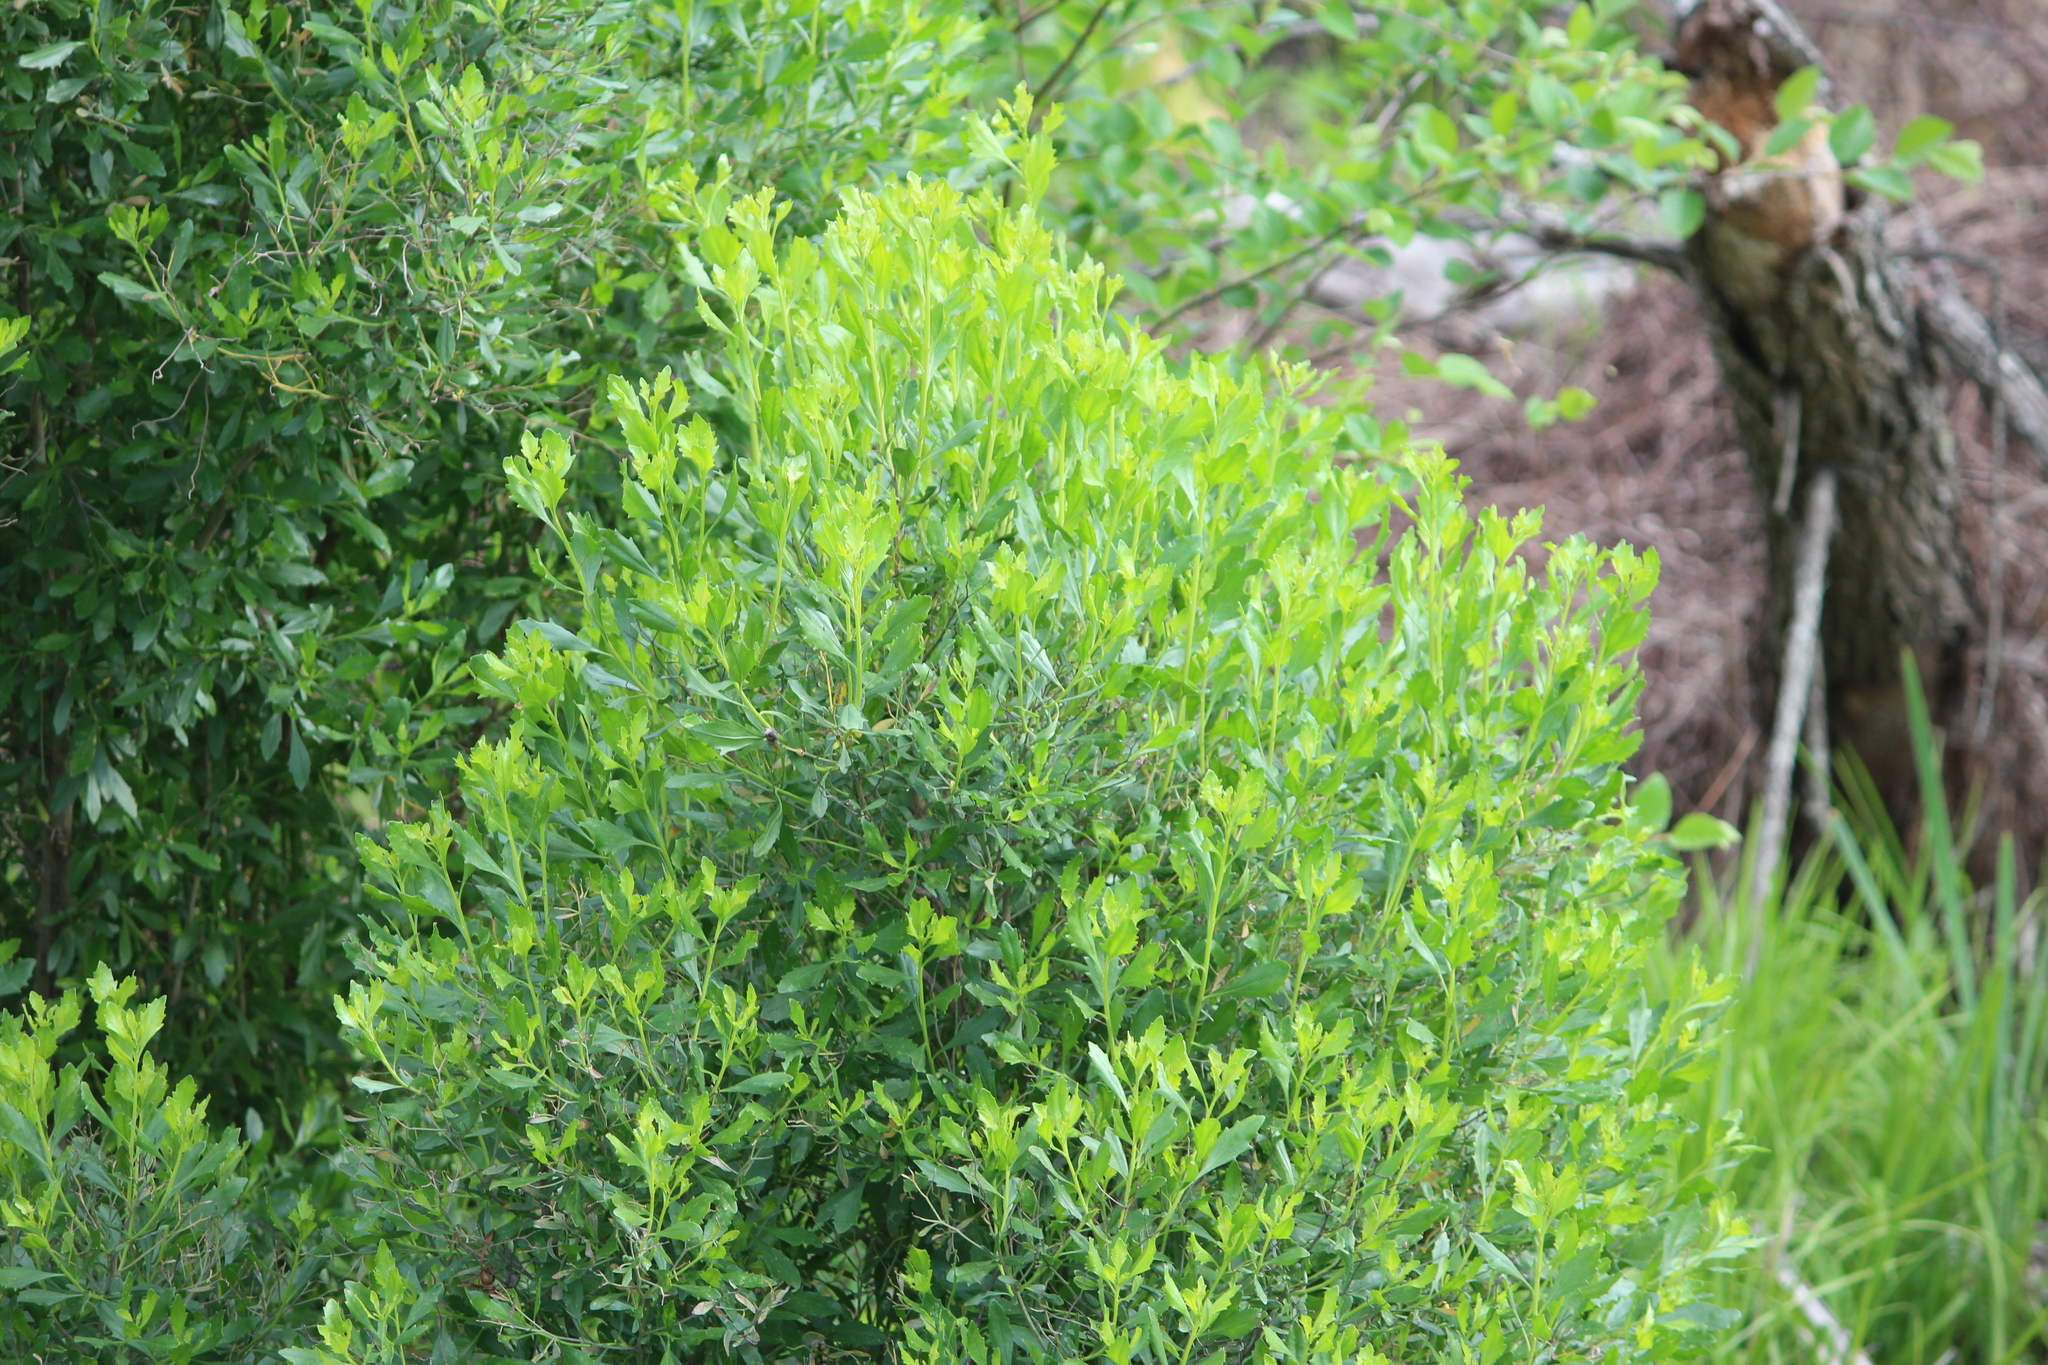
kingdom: Plantae
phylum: Tracheophyta
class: Magnoliopsida
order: Asterales
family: Asteraceae
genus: Baccharis
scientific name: Baccharis halimifolia
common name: Eastern baccharis
